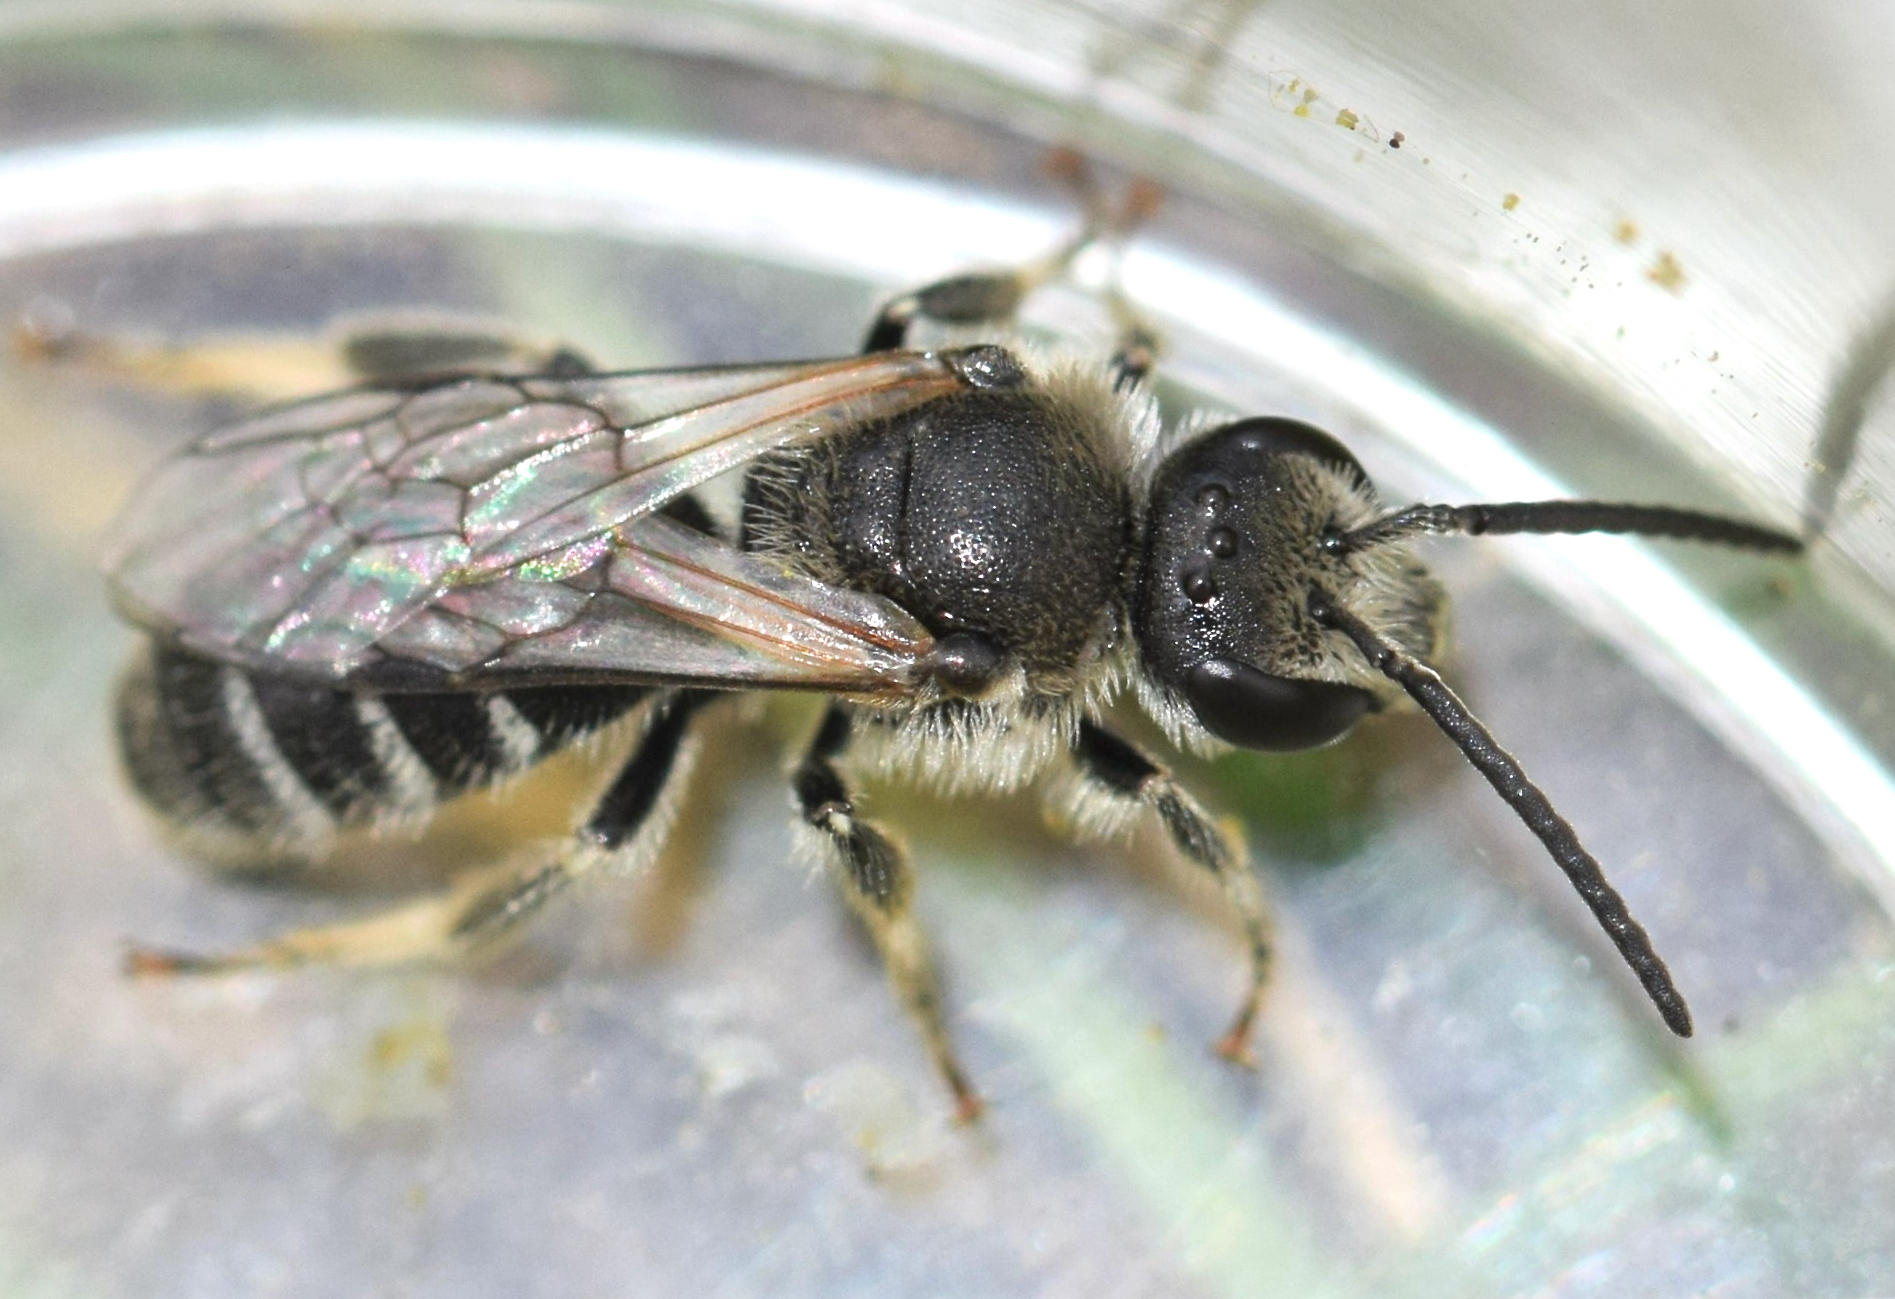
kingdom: Animalia
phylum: Arthropoda
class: Insecta
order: Hymenoptera
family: Halictidae
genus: Lasioglossum
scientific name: Lasioglossum leucozonium
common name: White-zoned furrow bee
